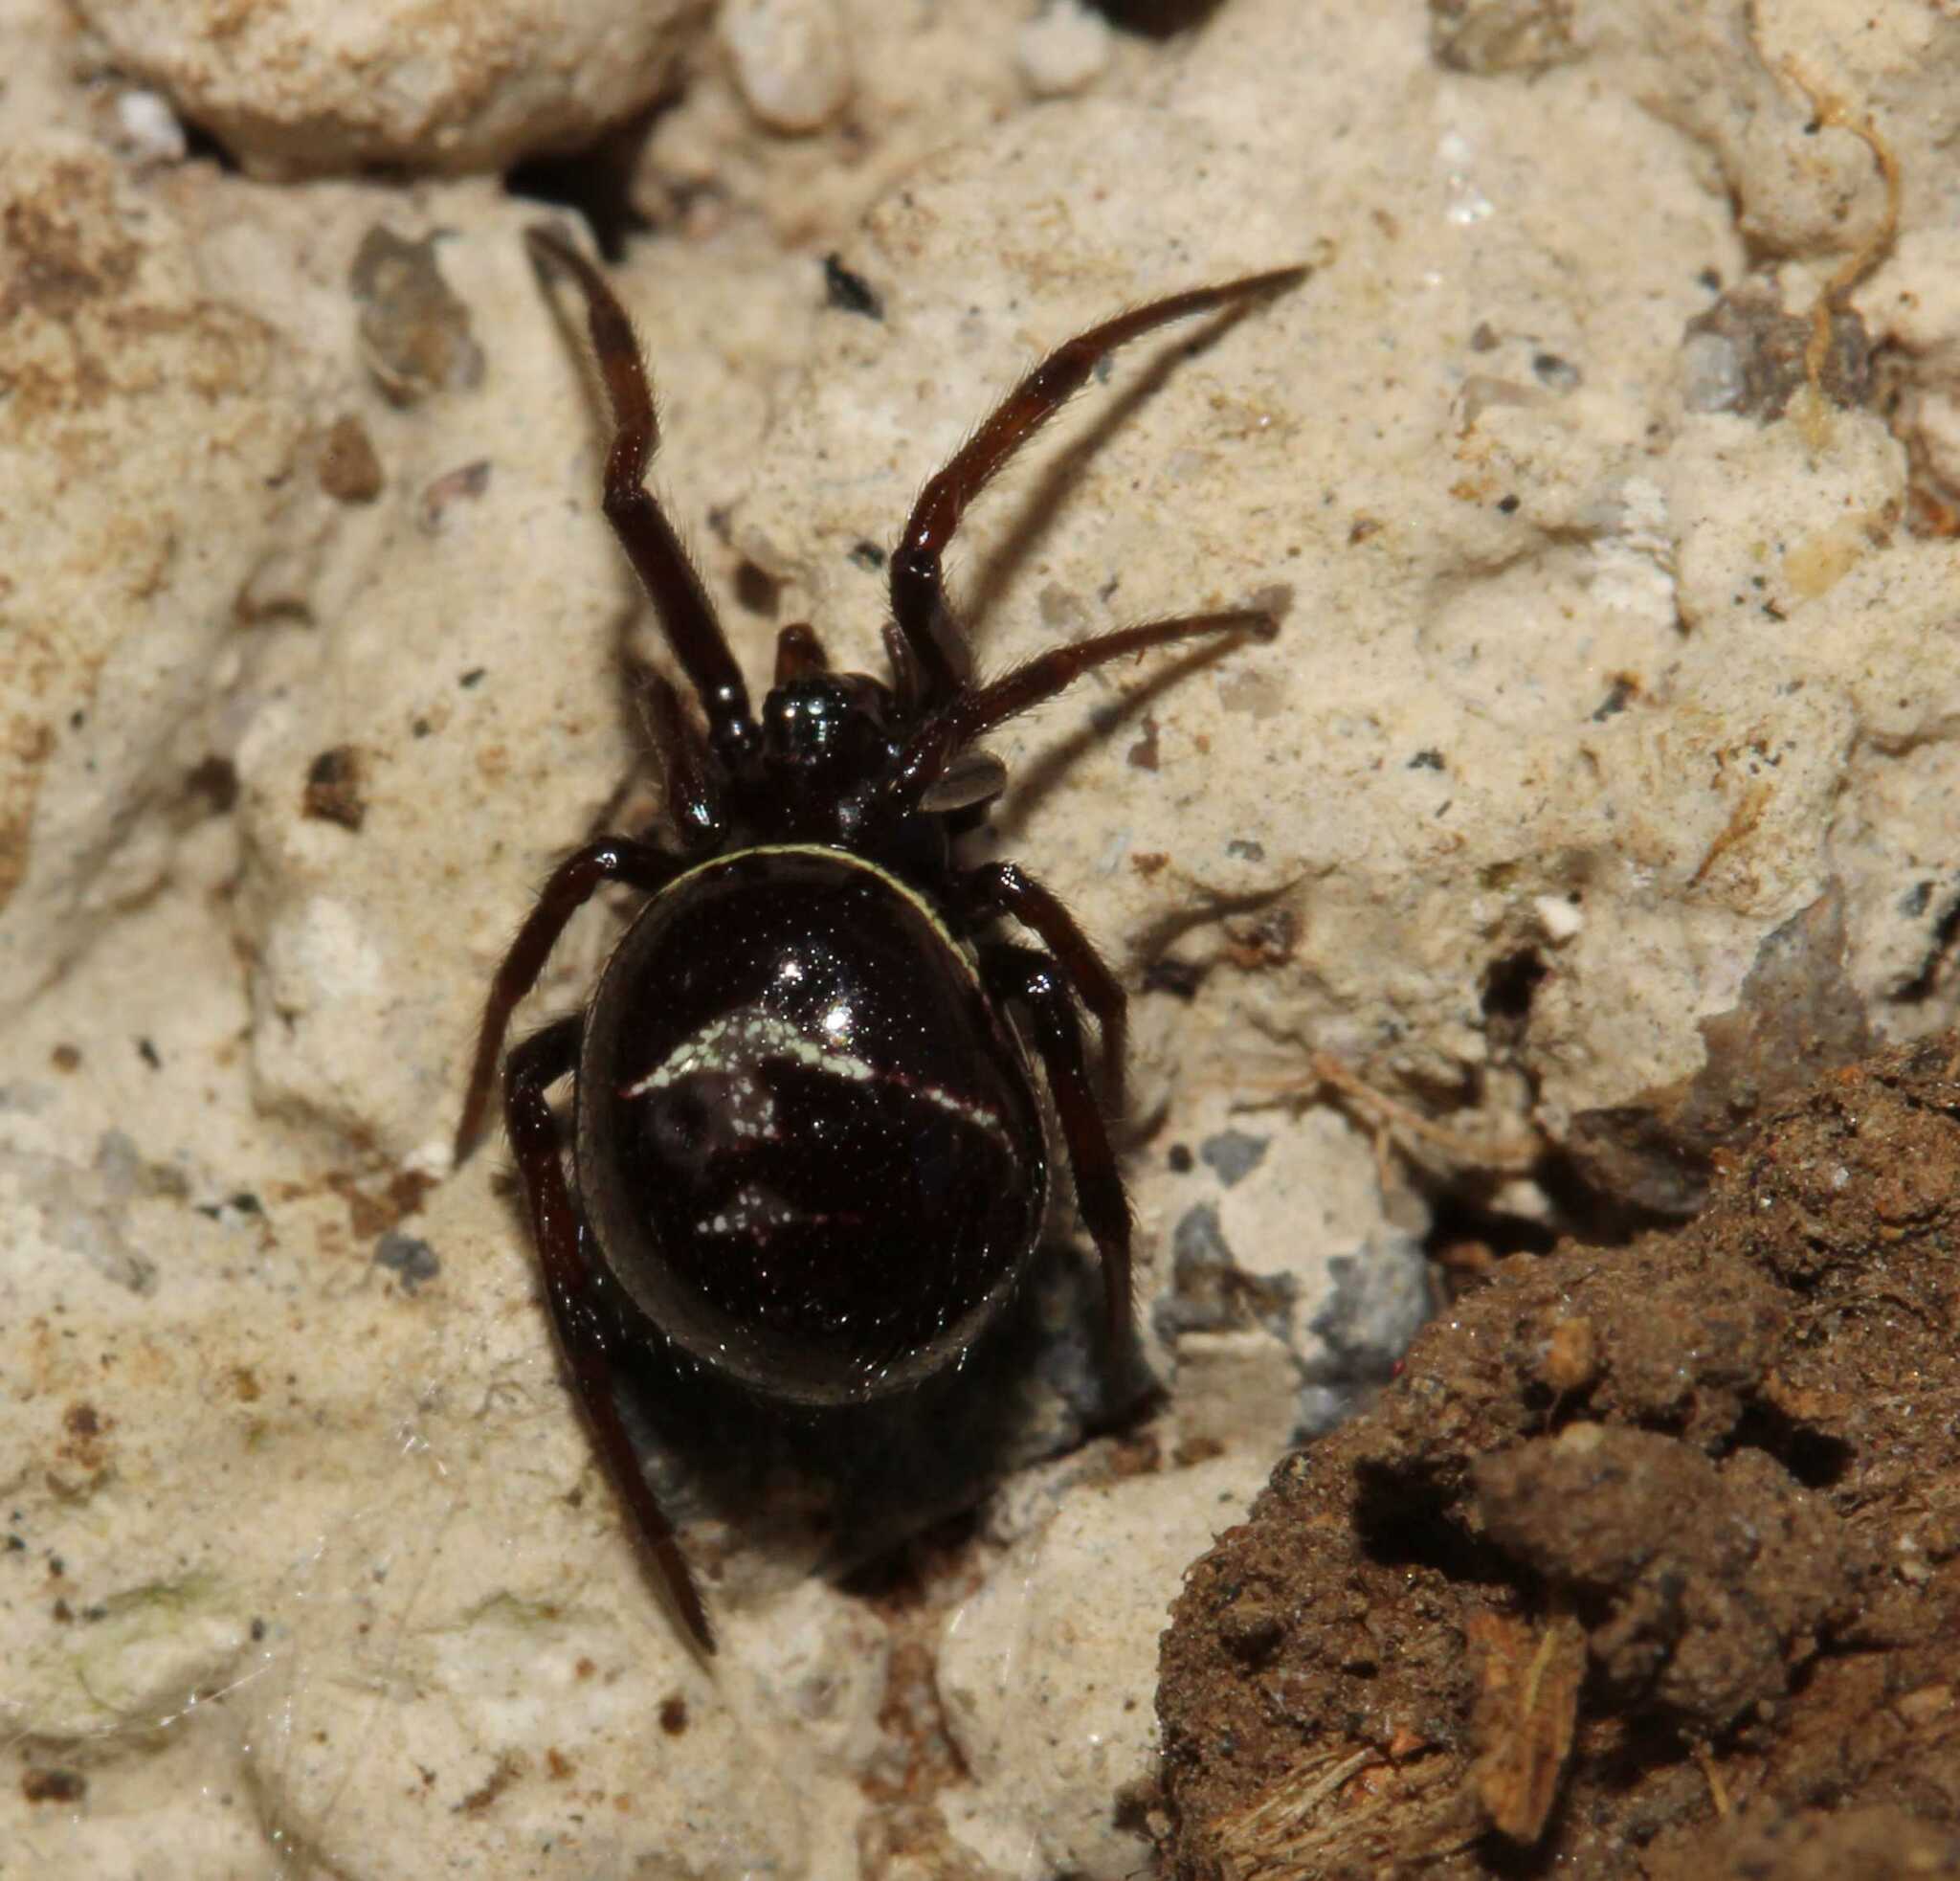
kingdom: Animalia
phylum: Arthropoda
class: Arachnida
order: Araneae
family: Theridiidae
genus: Steatoda
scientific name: Steatoda
